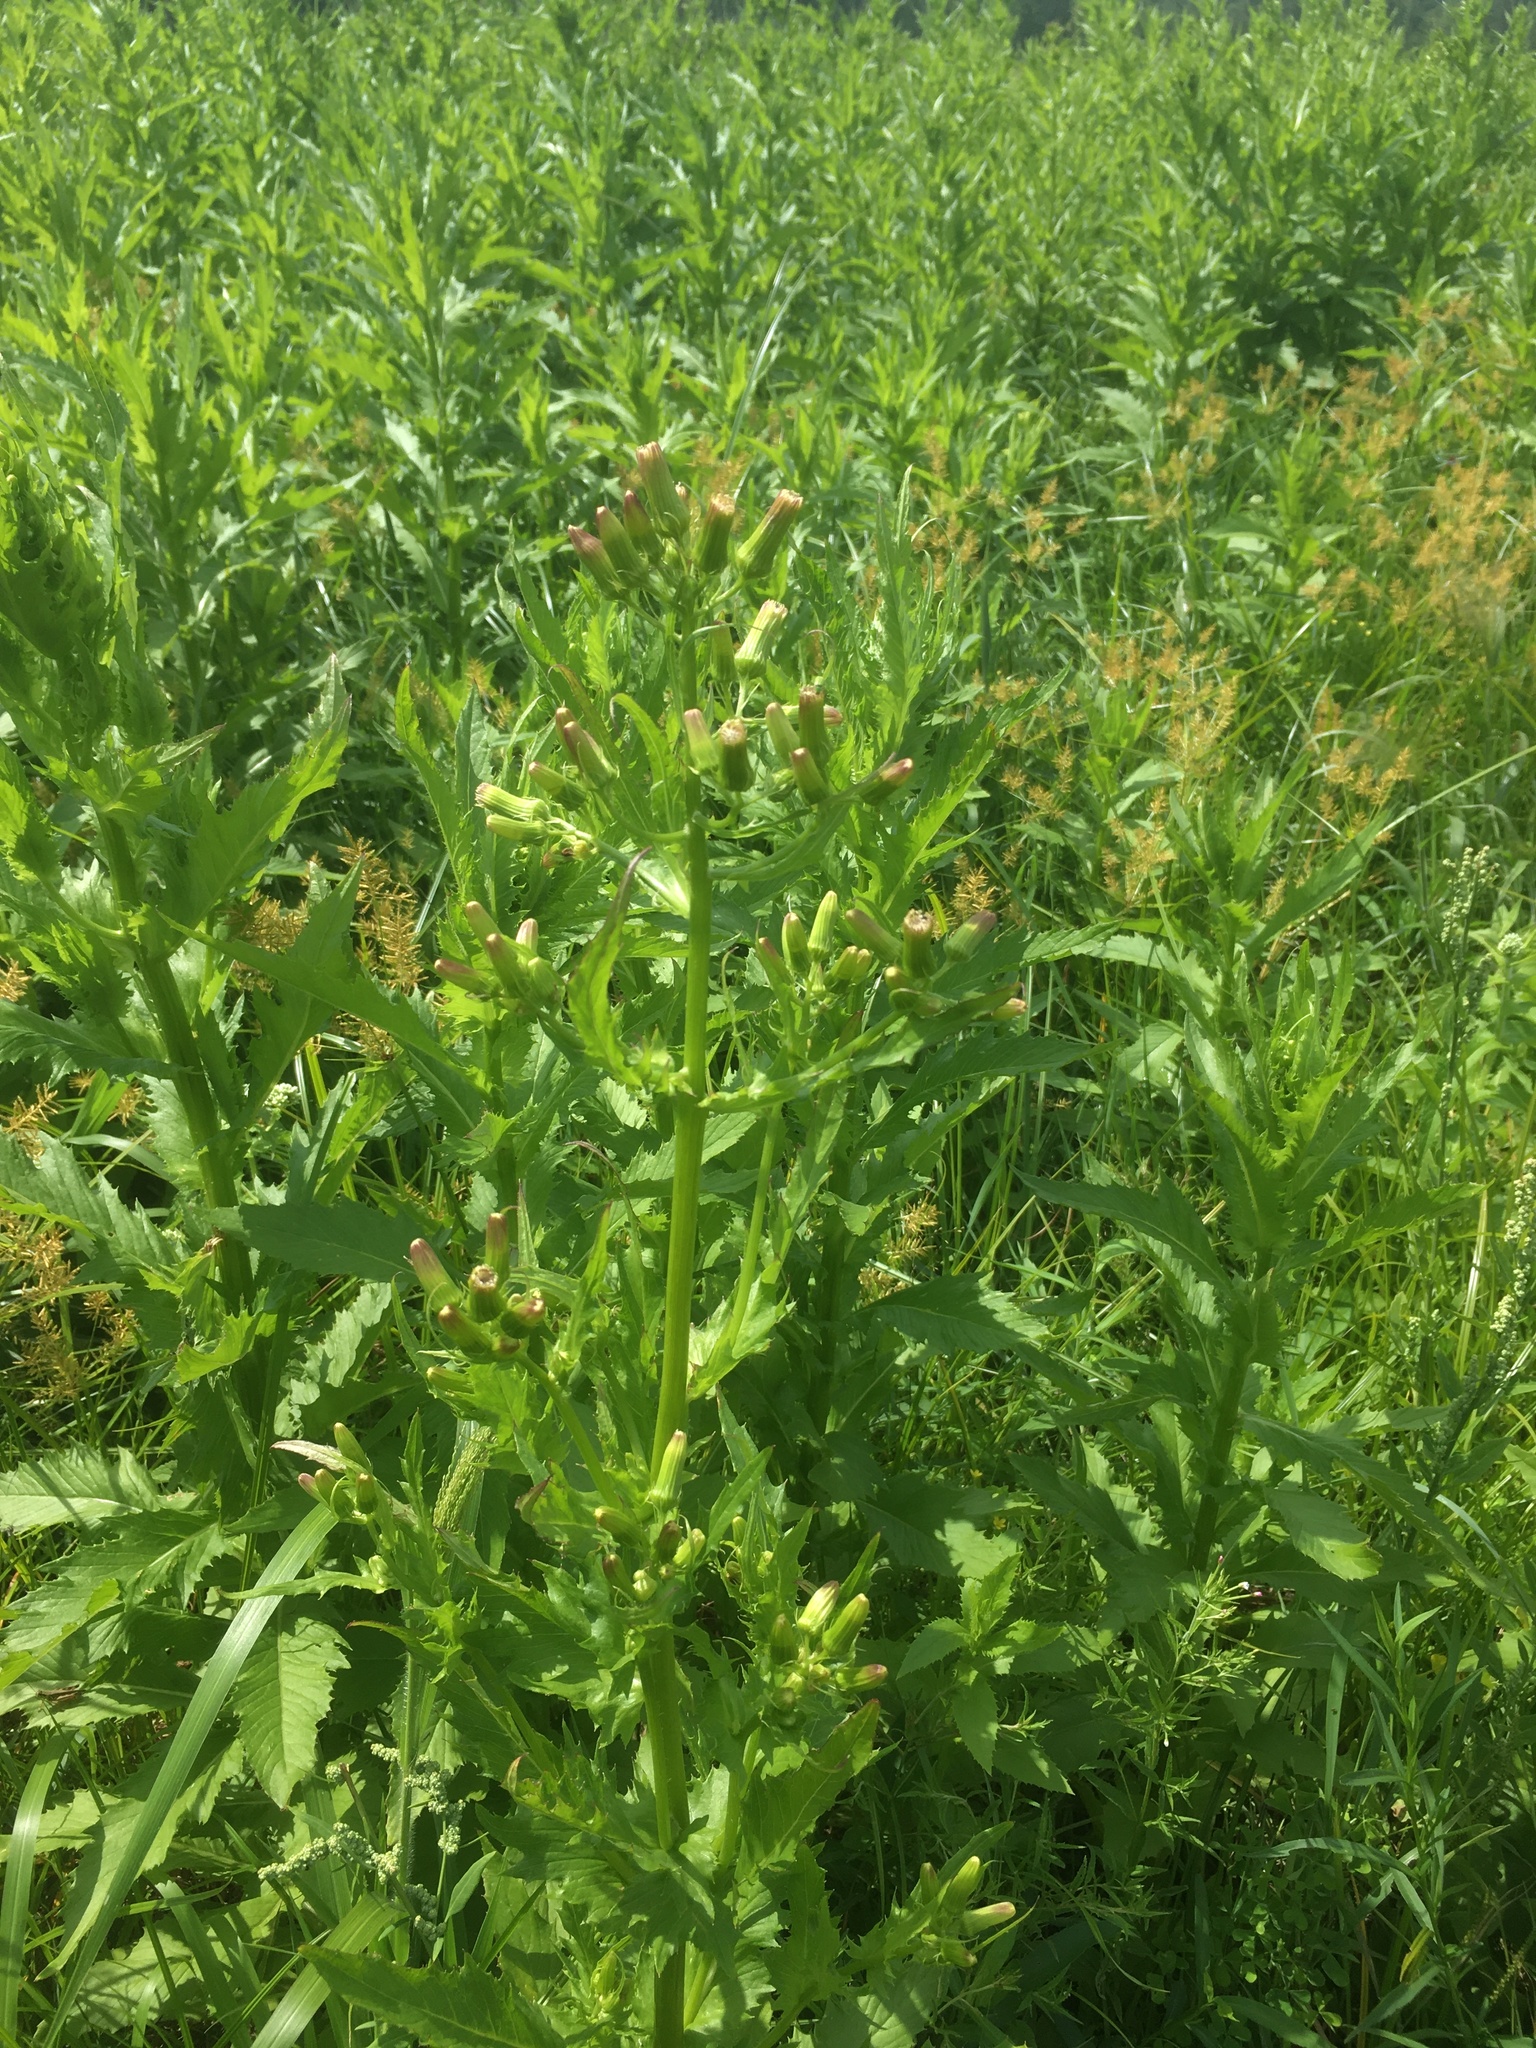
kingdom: Plantae
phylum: Tracheophyta
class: Magnoliopsida
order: Asterales
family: Asteraceae
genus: Erechtites
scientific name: Erechtites hieraciifolius
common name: American burnweed
